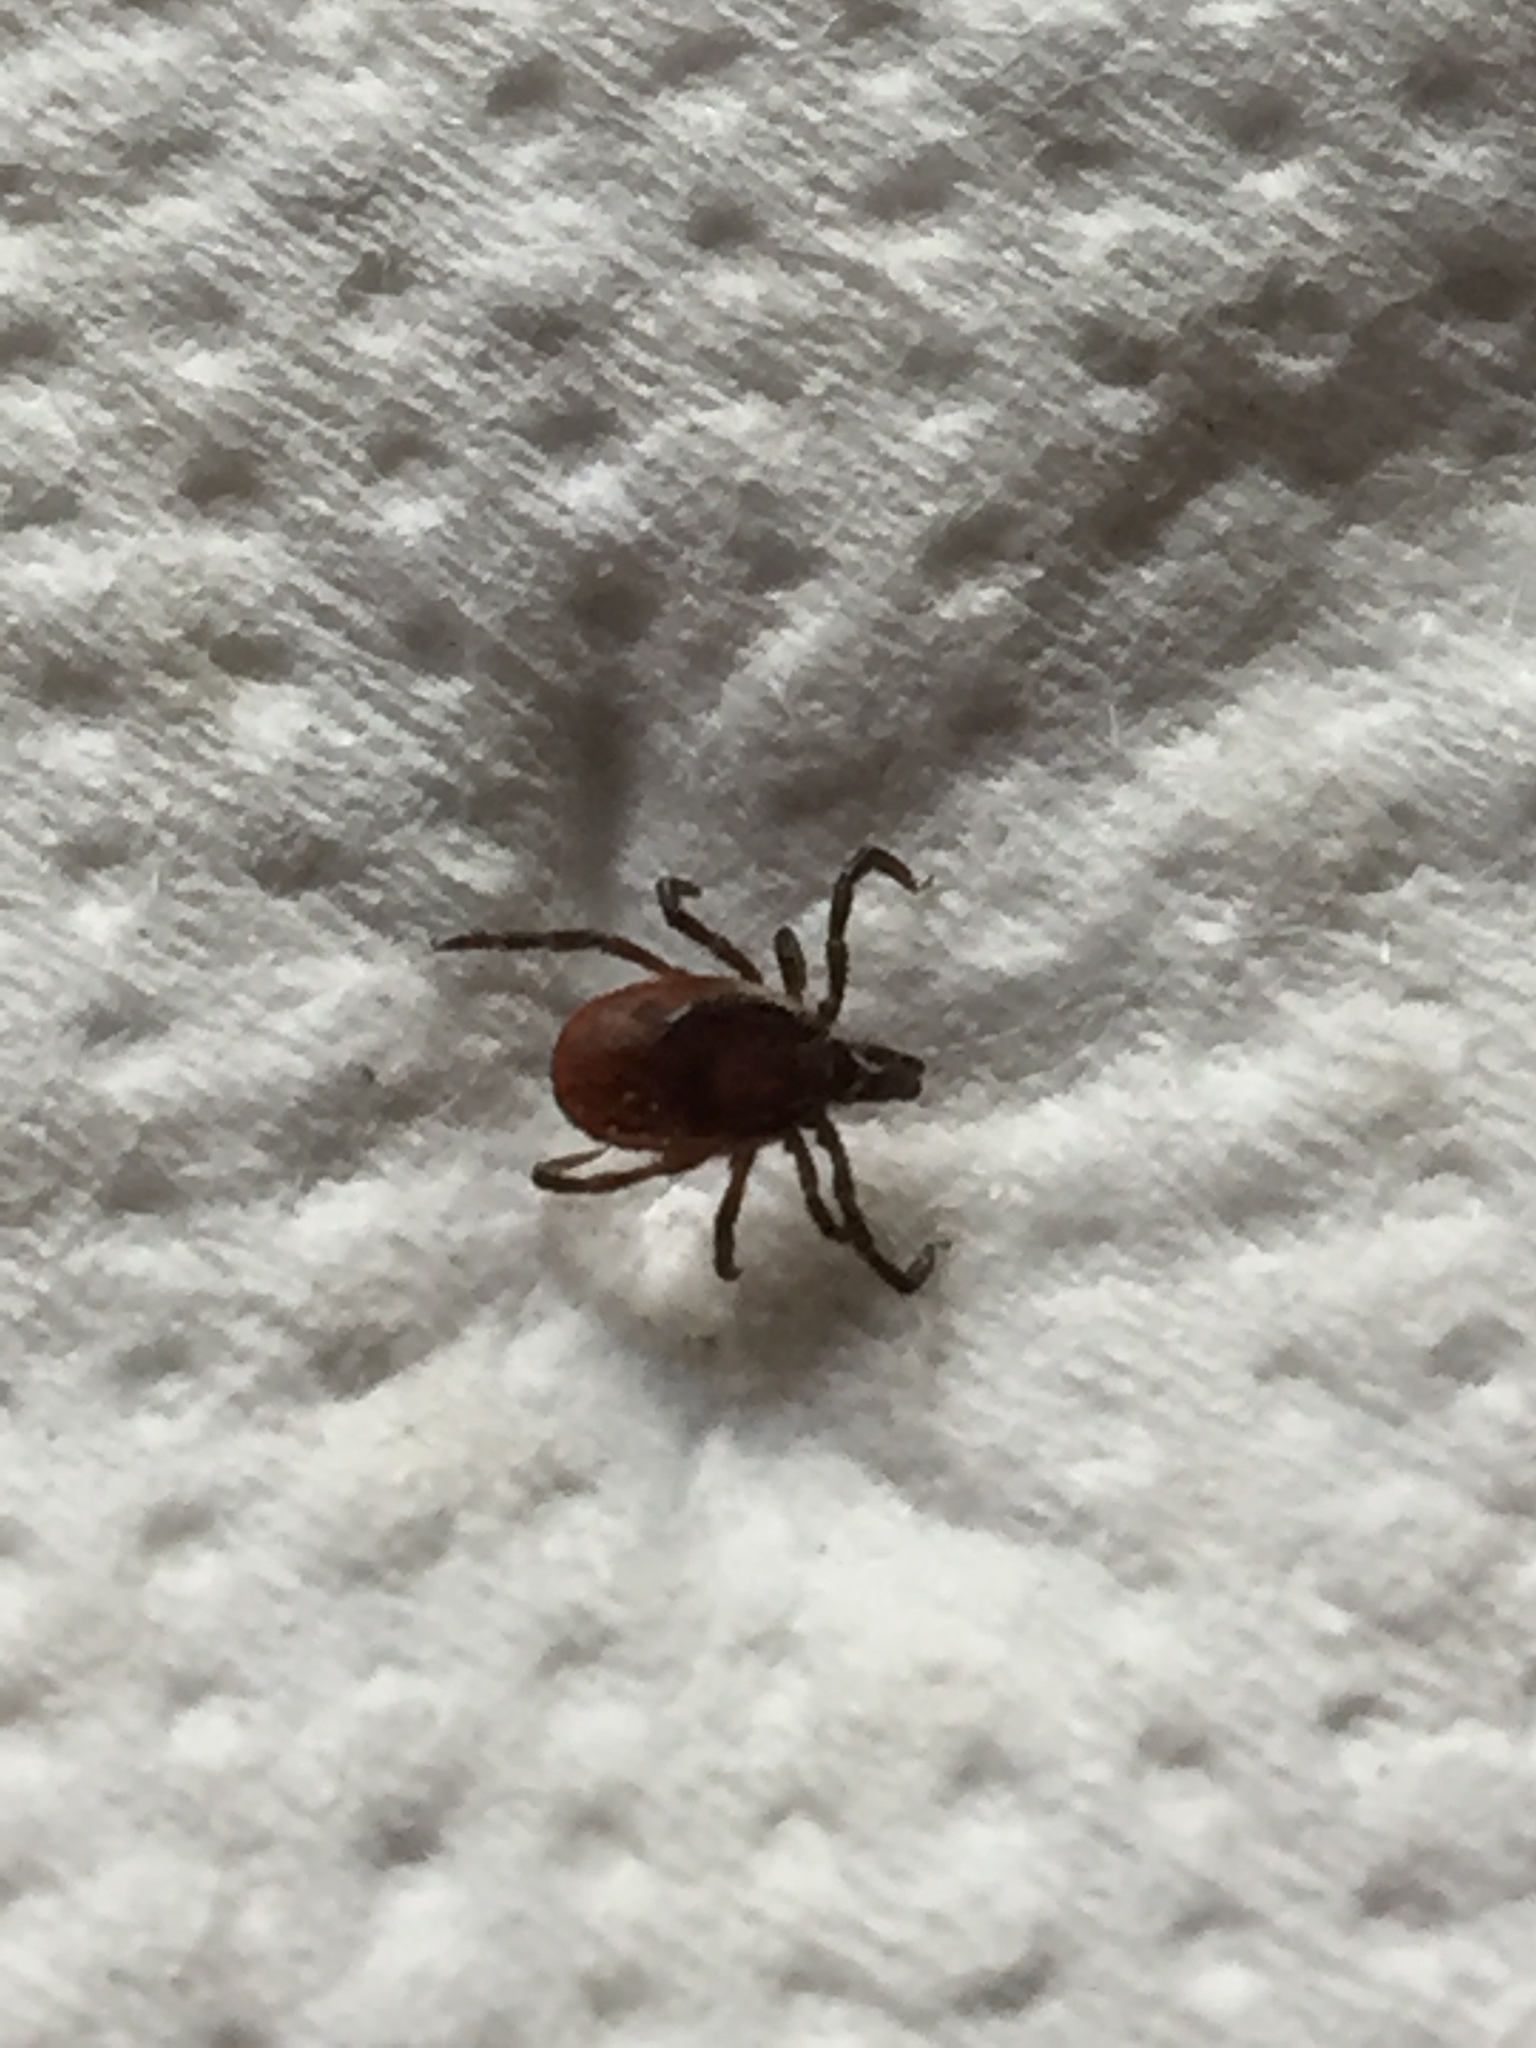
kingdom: Animalia
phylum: Arthropoda
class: Arachnida
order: Ixodida
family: Ixodidae
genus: Ixodes
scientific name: Ixodes ricinus
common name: Castor bean tick
